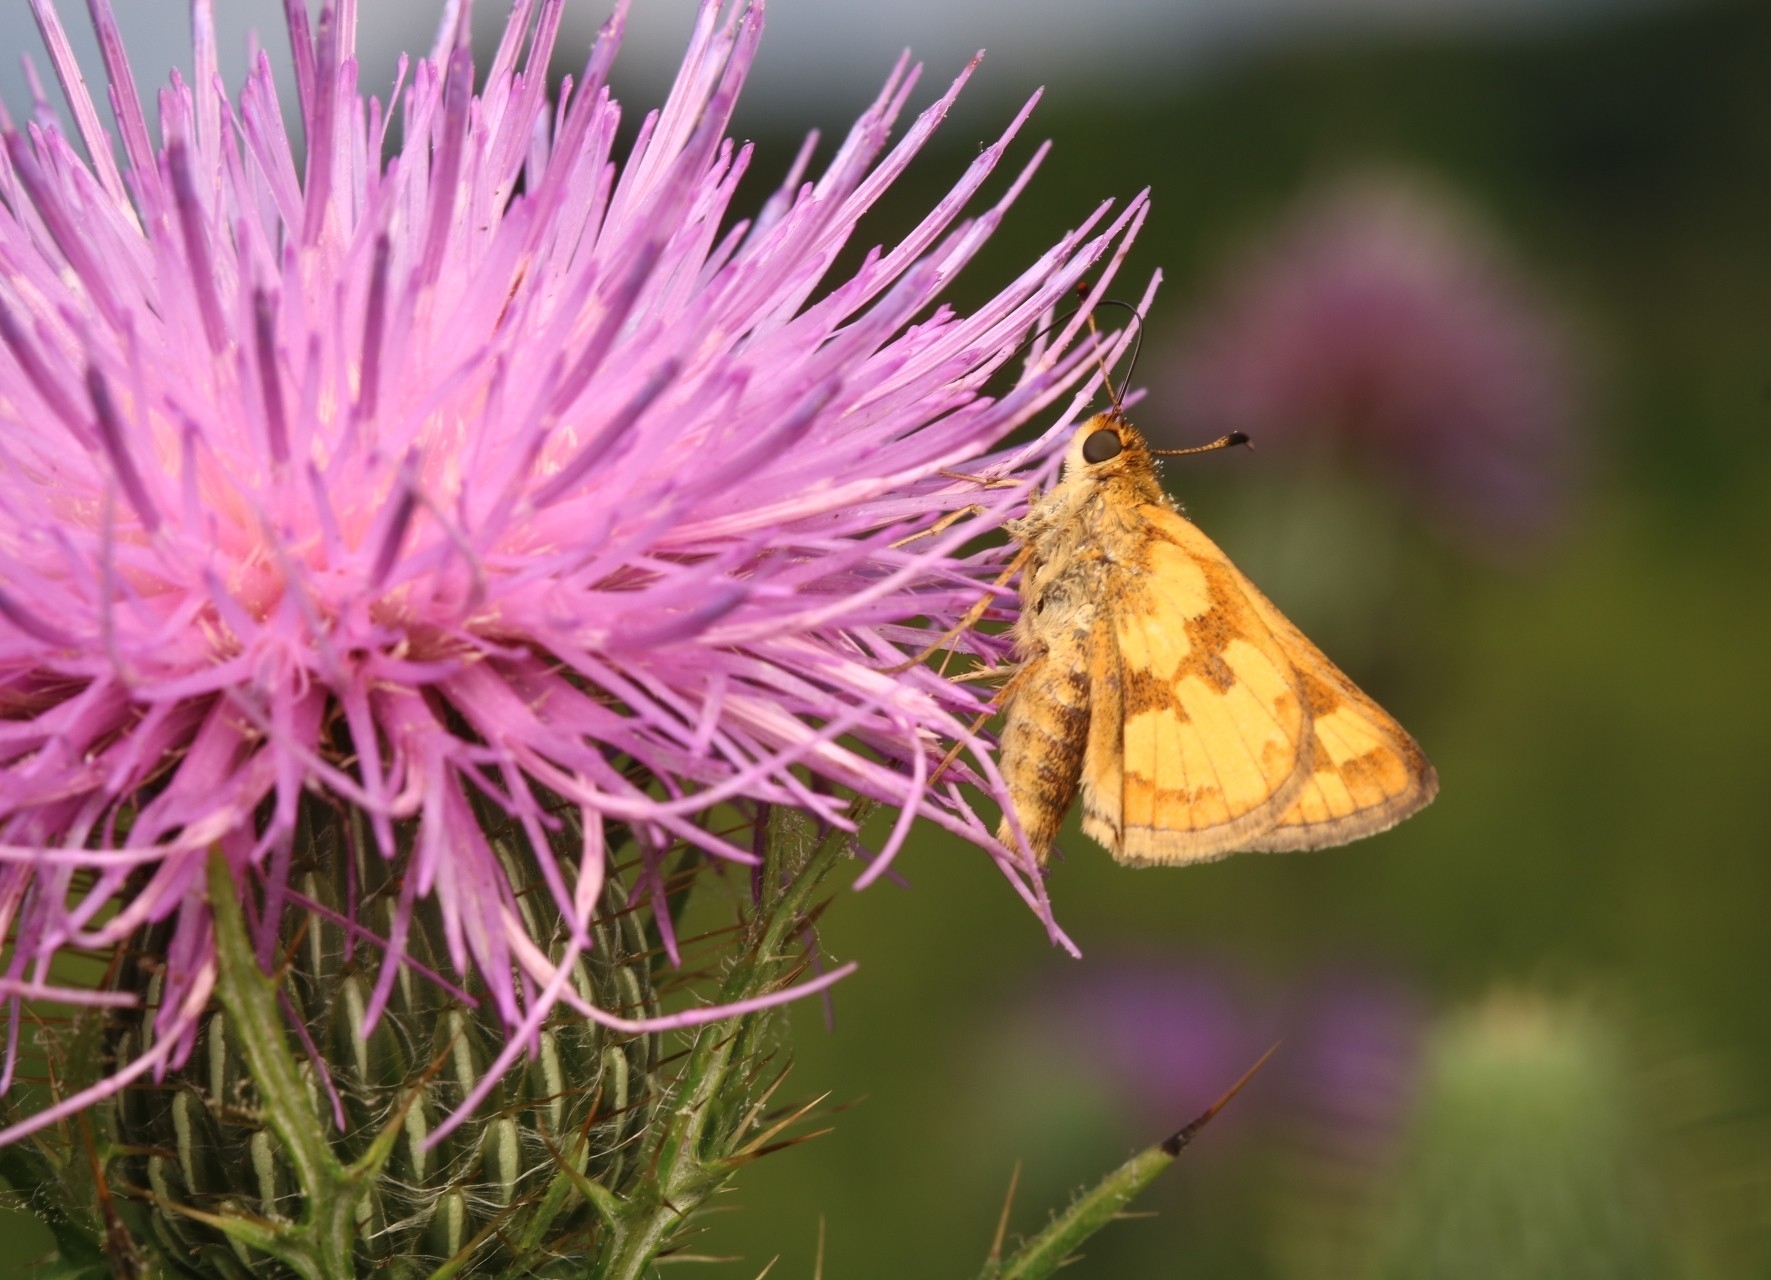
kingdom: Animalia
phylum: Arthropoda
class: Insecta
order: Lepidoptera
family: Hesperiidae
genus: Polites
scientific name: Polites coras
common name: Peck's skipper
